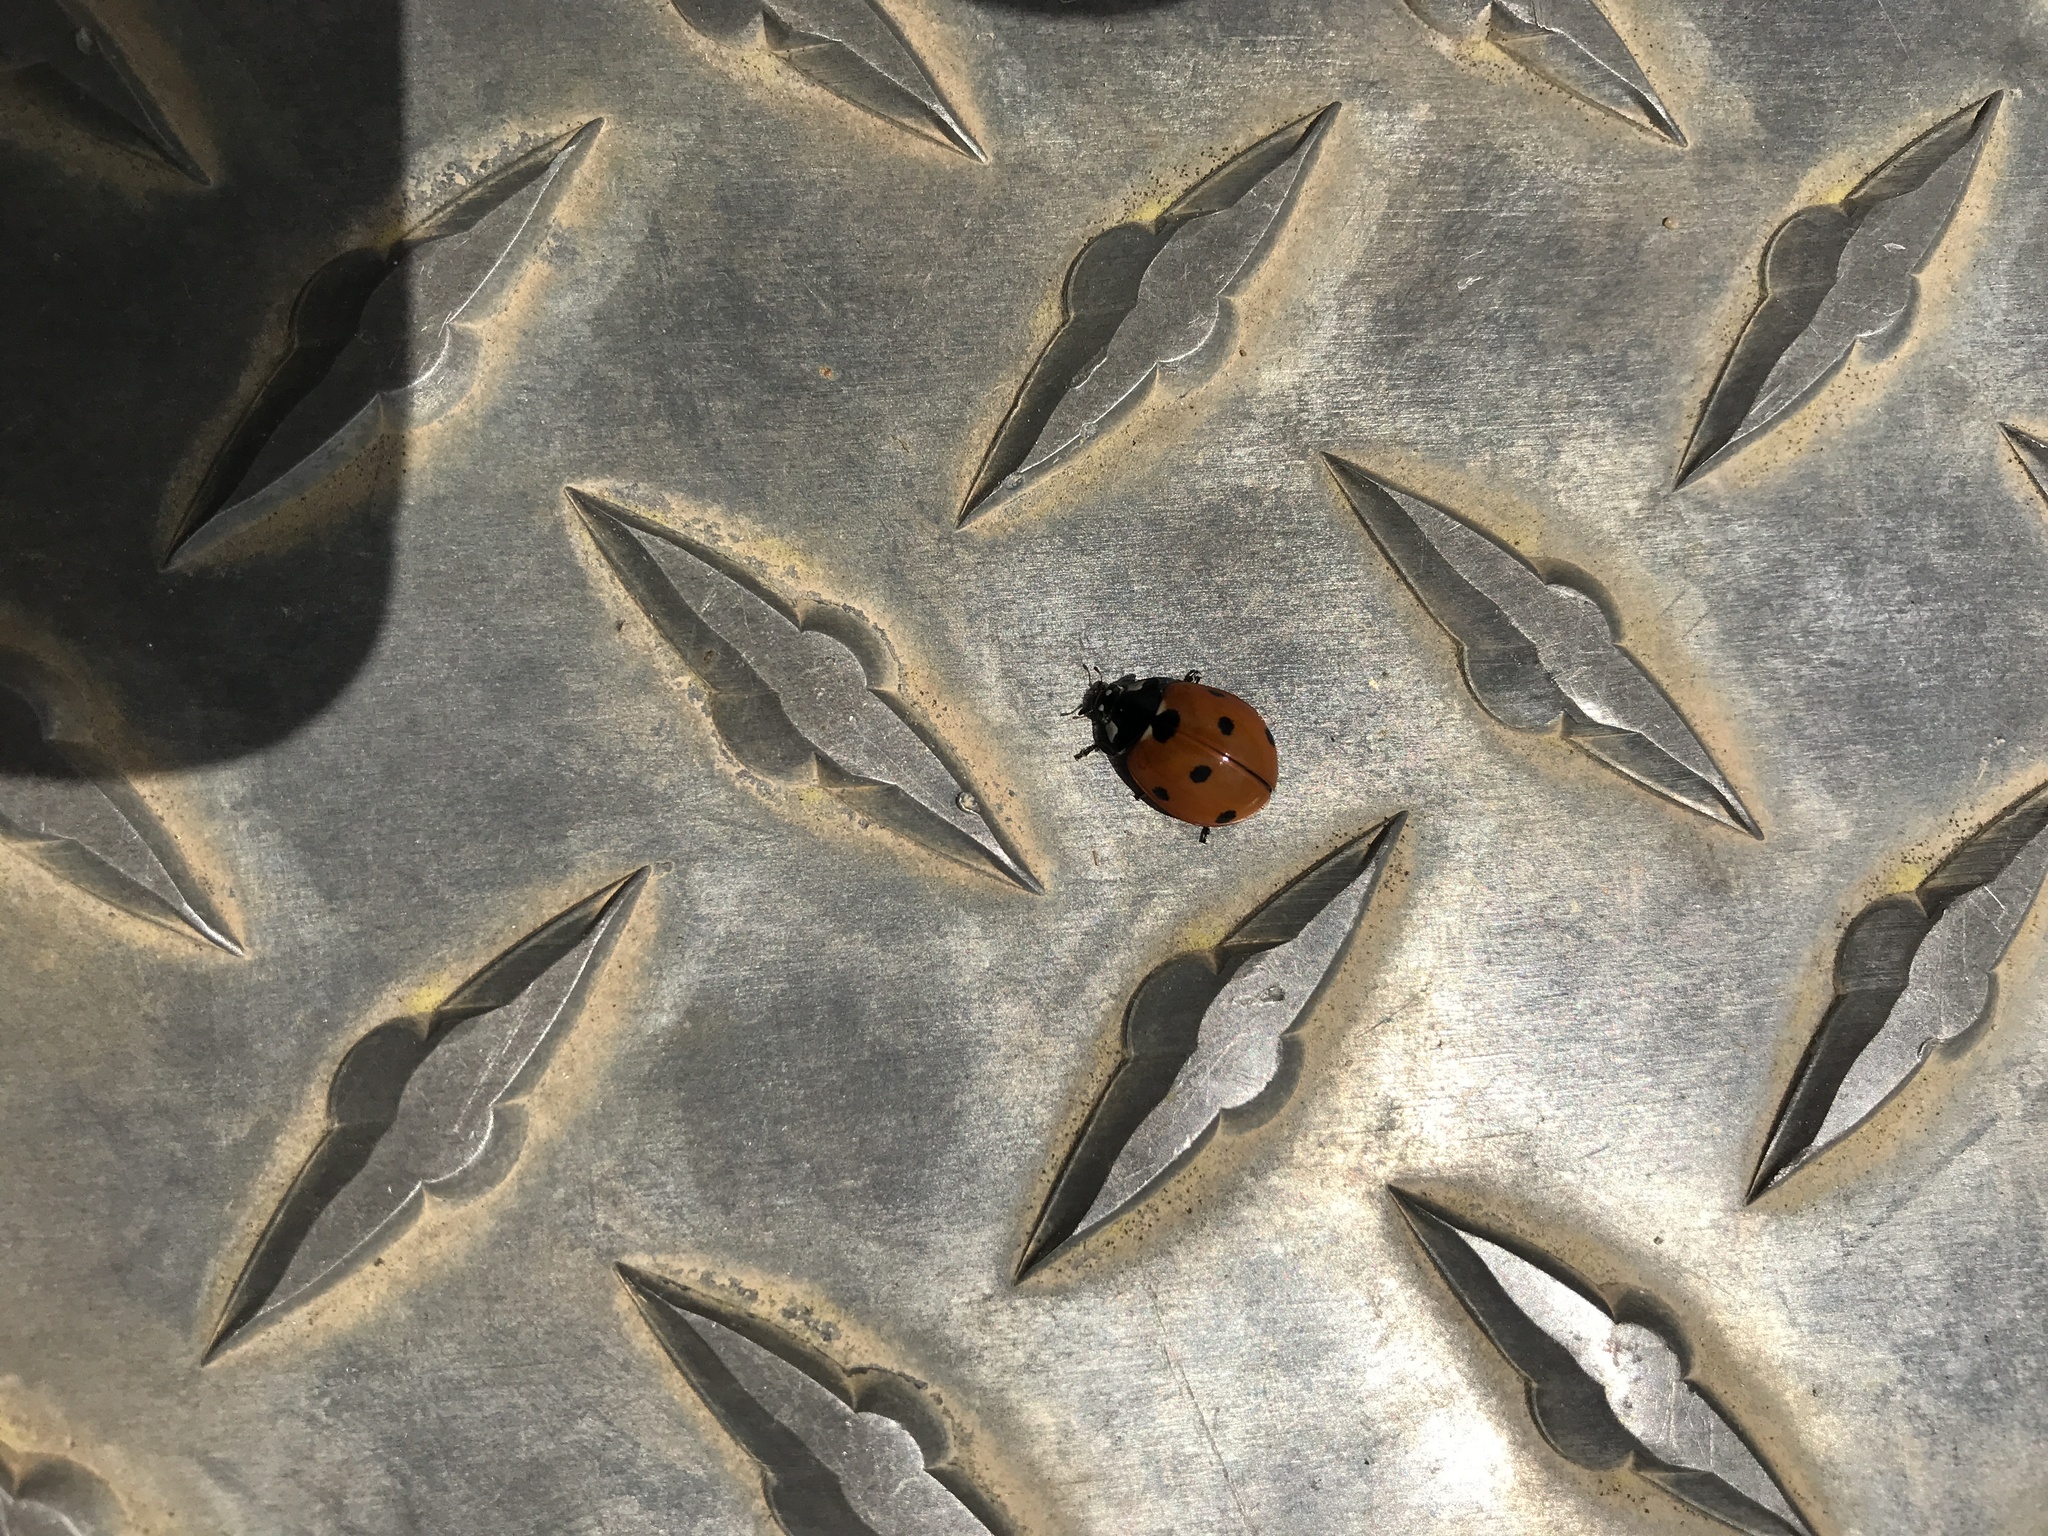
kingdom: Animalia
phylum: Arthropoda
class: Insecta
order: Coleoptera
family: Coccinellidae
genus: Coccinella
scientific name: Coccinella septempunctata
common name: Sevenspotted lady beetle
